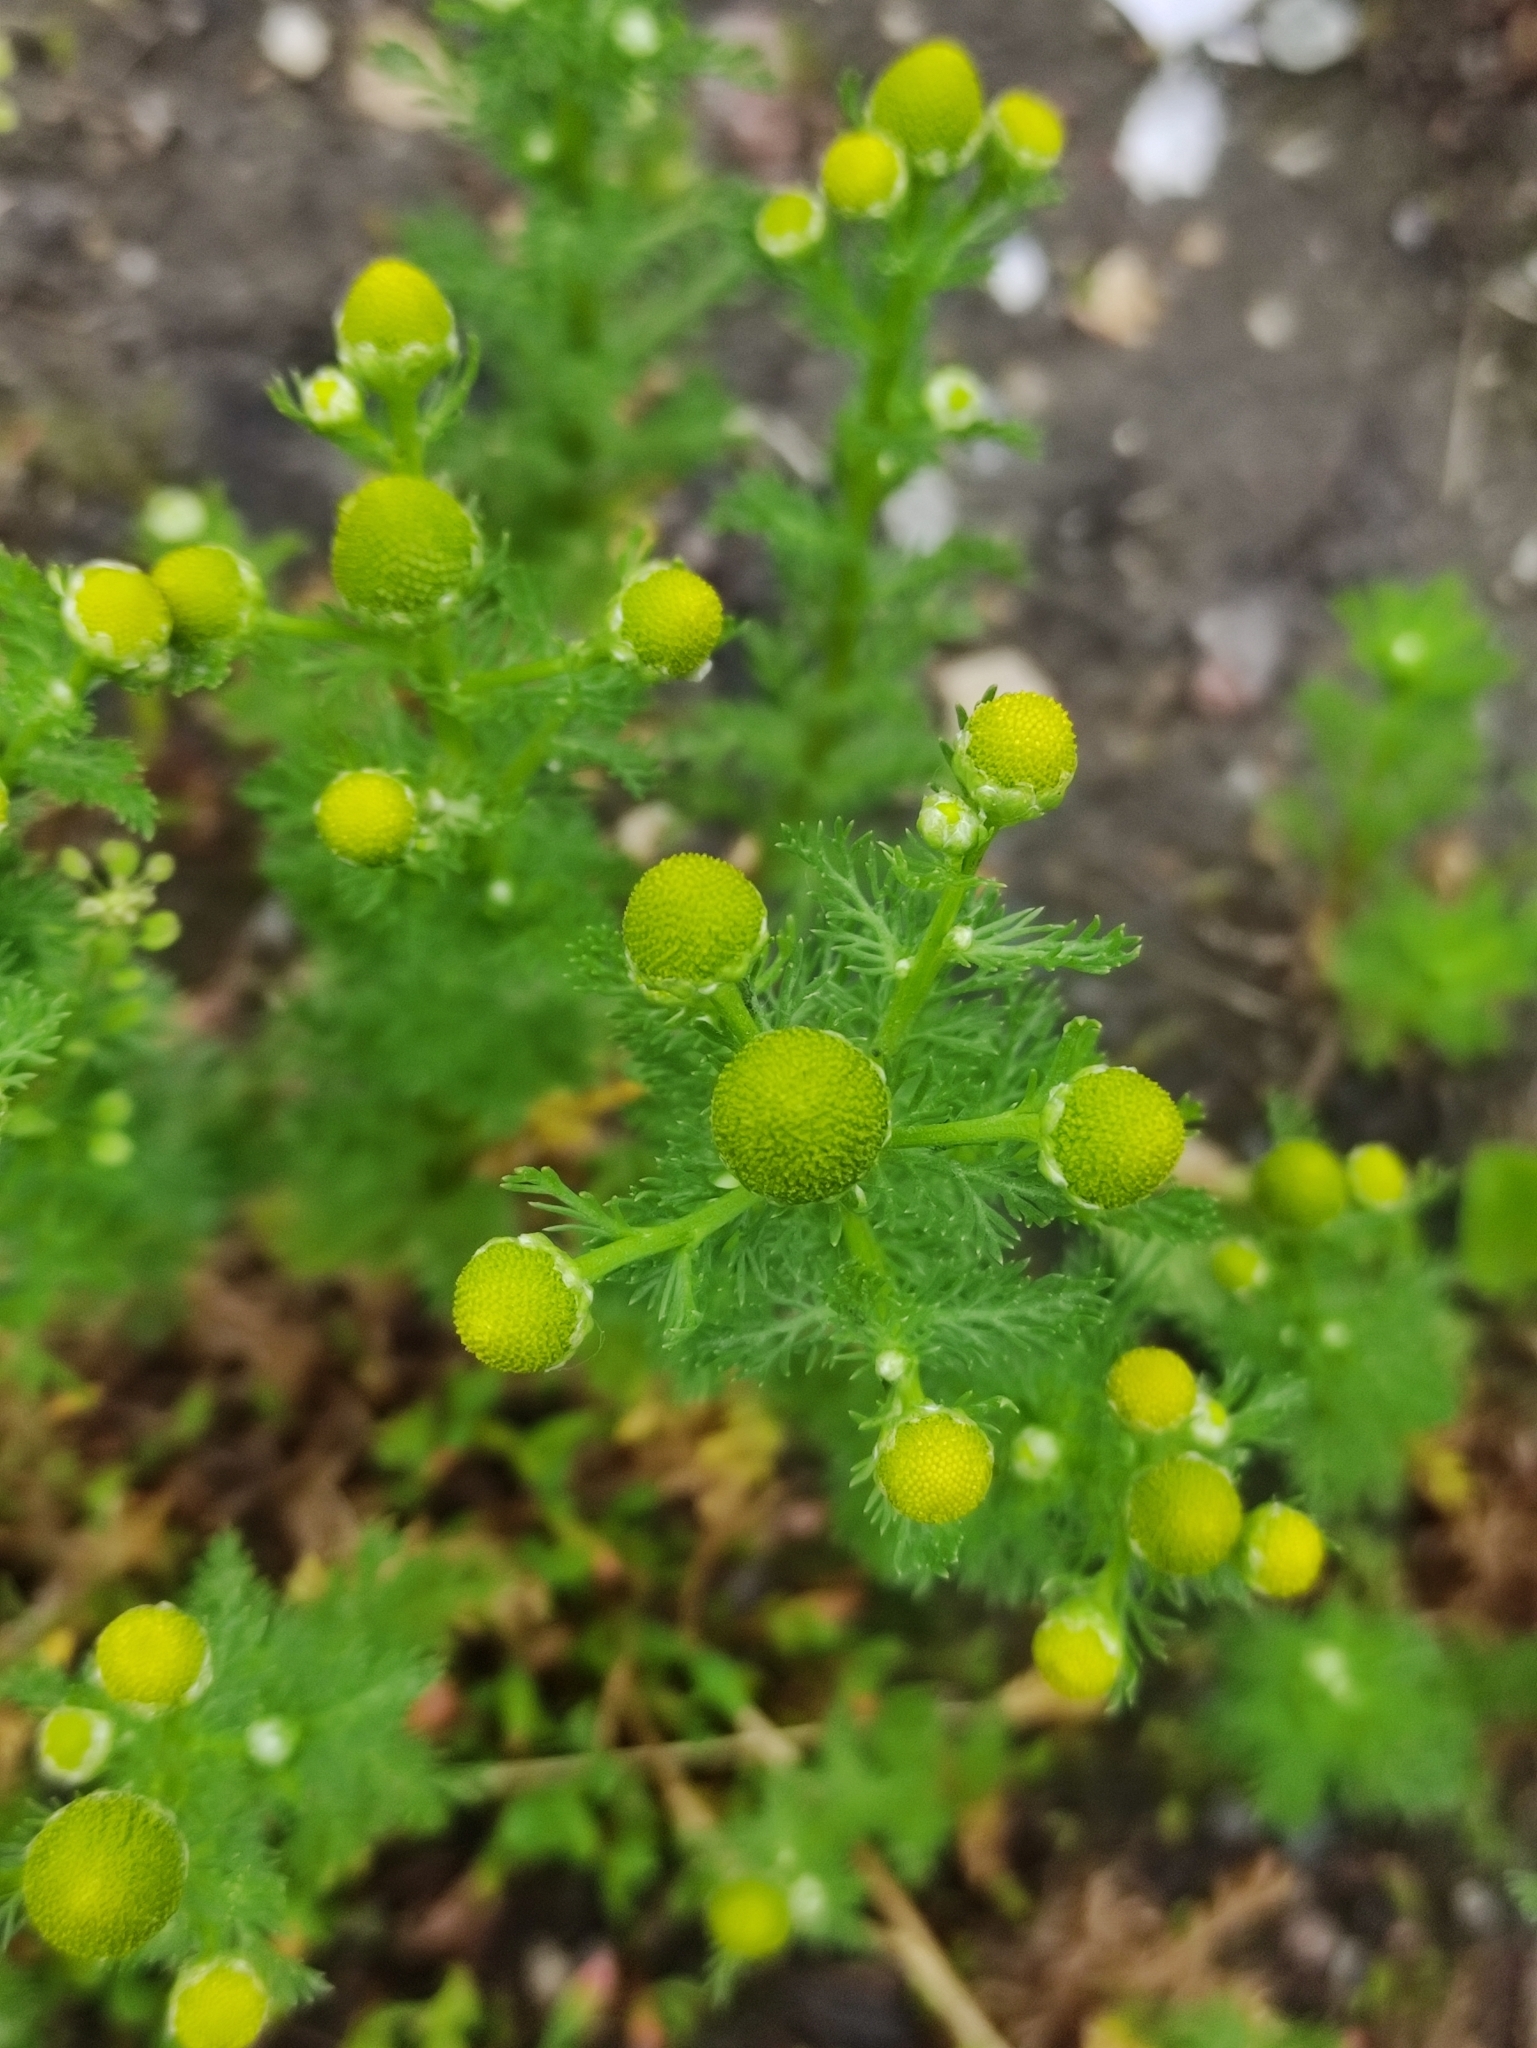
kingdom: Plantae
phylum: Tracheophyta
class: Magnoliopsida
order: Asterales
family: Asteraceae
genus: Matricaria
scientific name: Matricaria discoidea
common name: Disc mayweed
